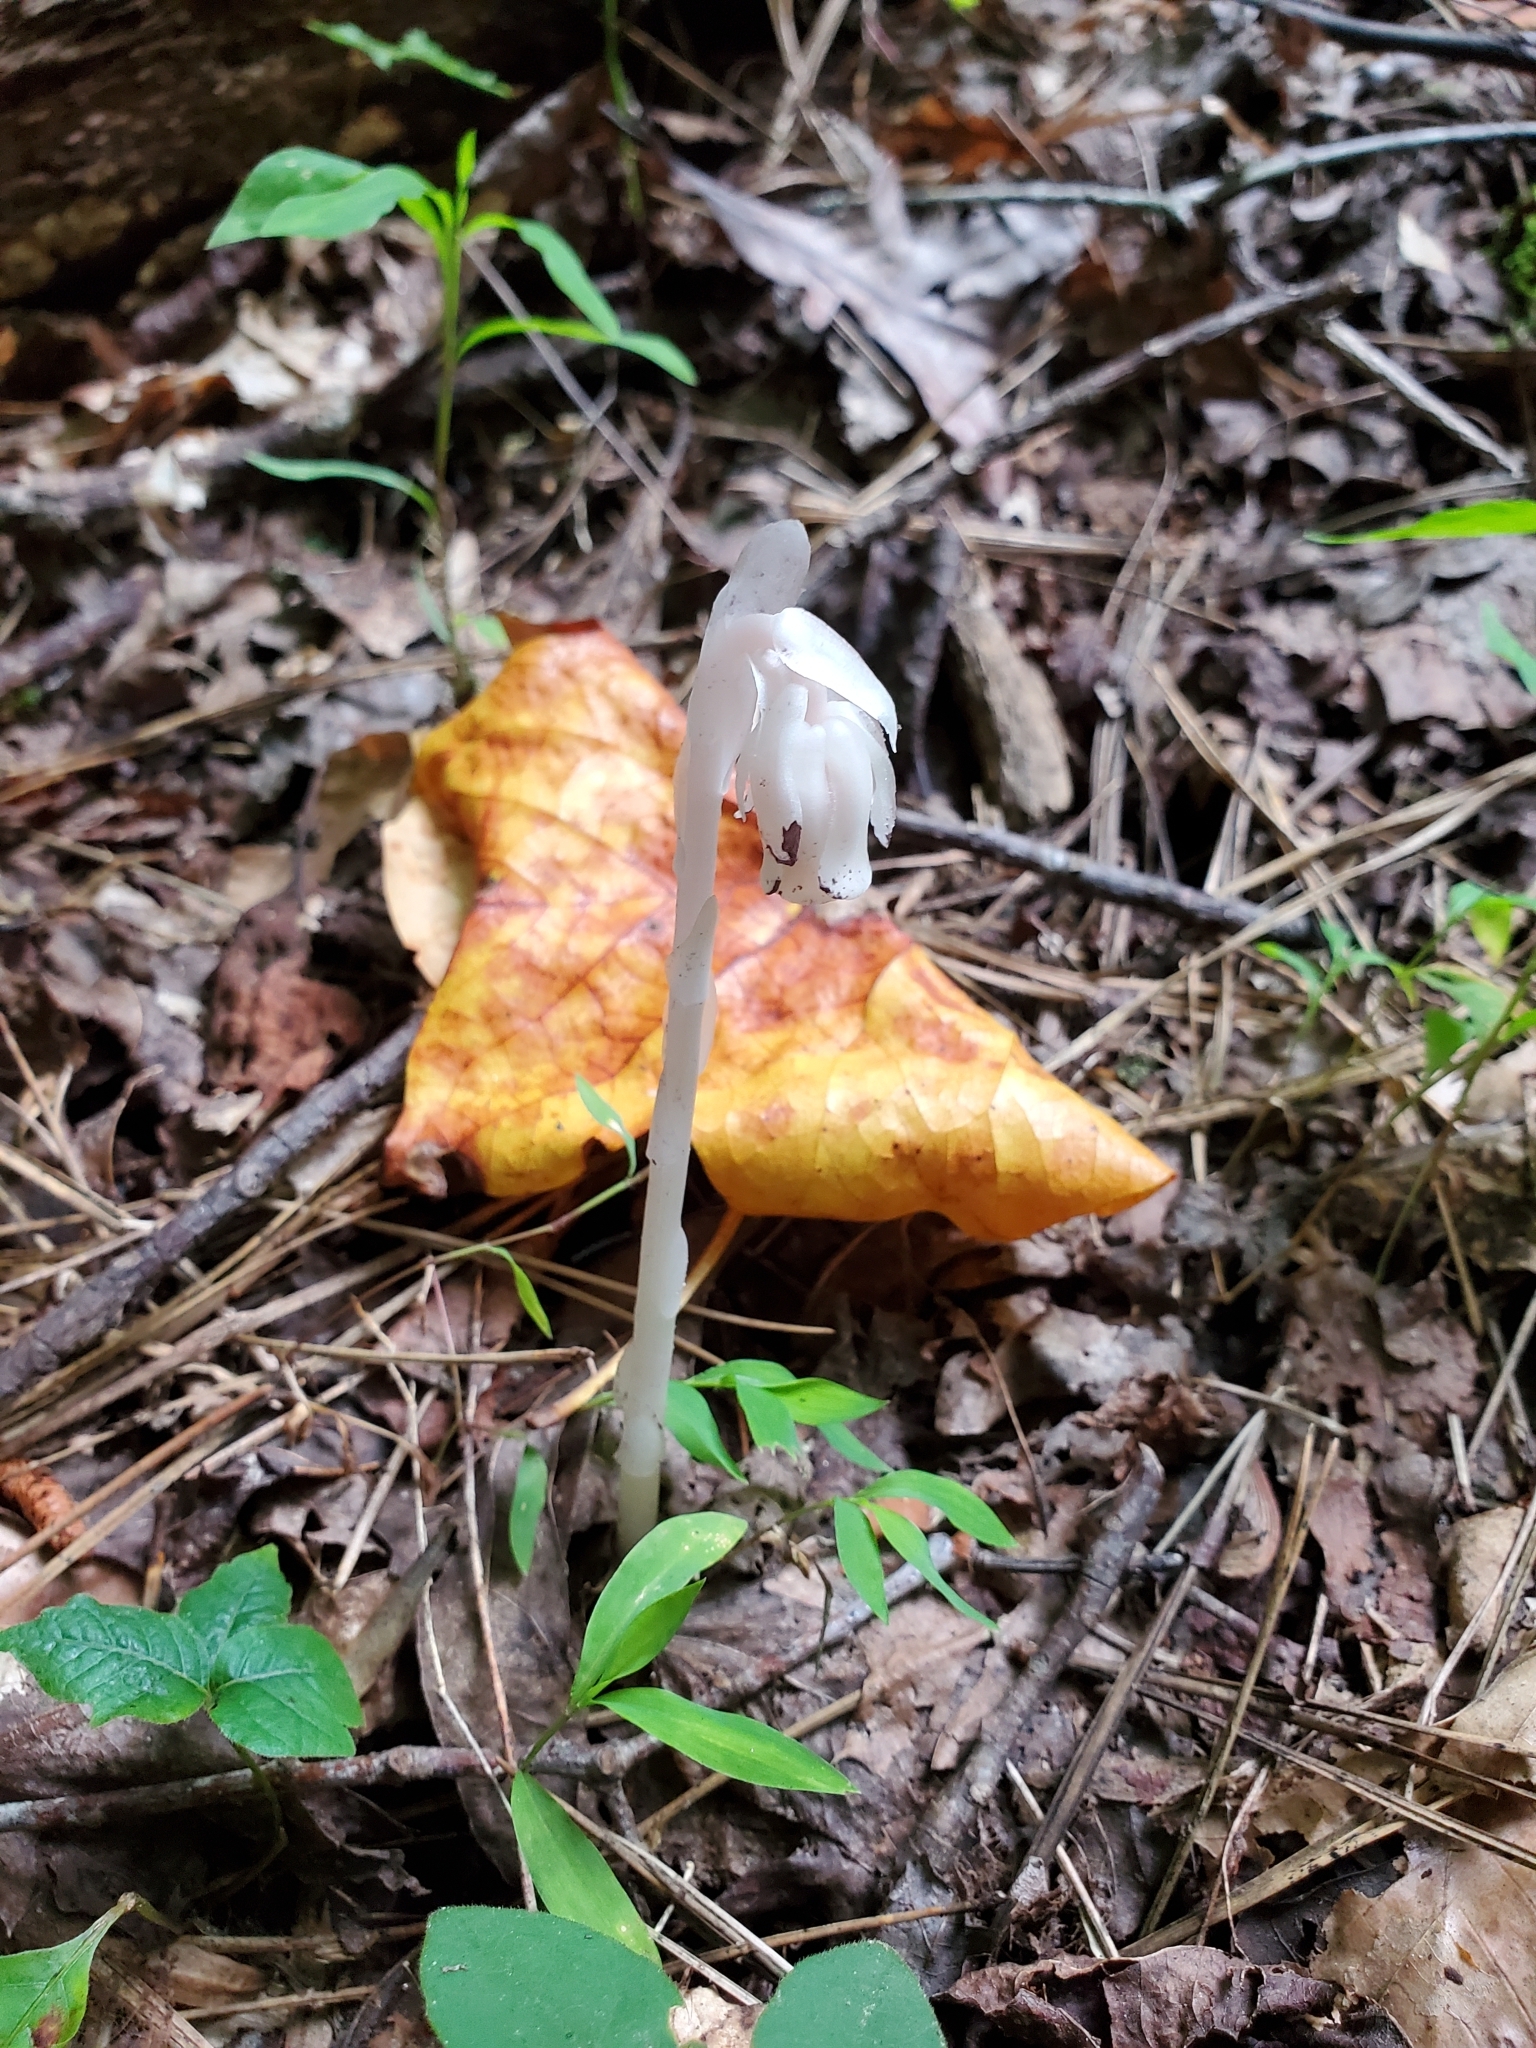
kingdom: Plantae
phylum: Tracheophyta
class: Magnoliopsida
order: Ericales
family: Ericaceae
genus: Monotropa
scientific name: Monotropa uniflora
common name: Convulsion root
